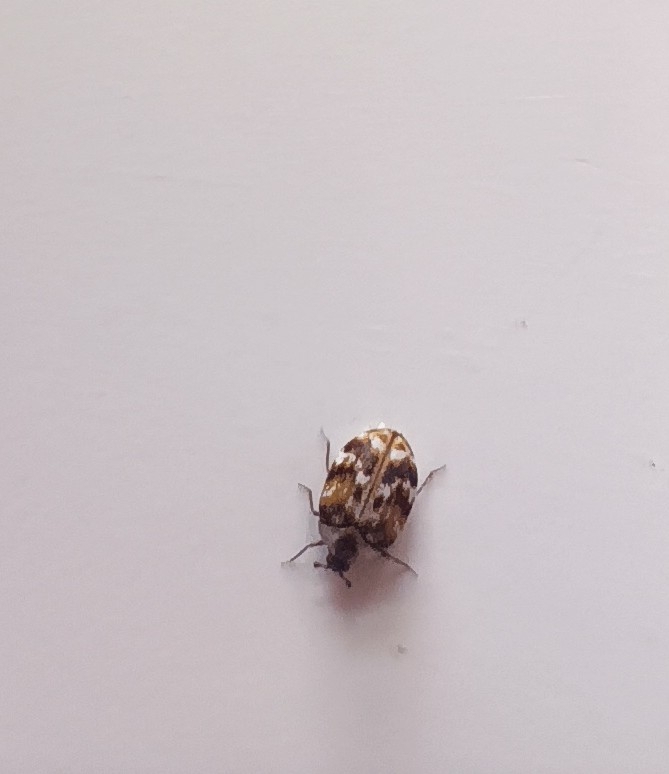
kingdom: Animalia
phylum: Arthropoda
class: Insecta
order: Coleoptera
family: Dermestidae
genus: Anthrenus
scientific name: Anthrenus picturatus
